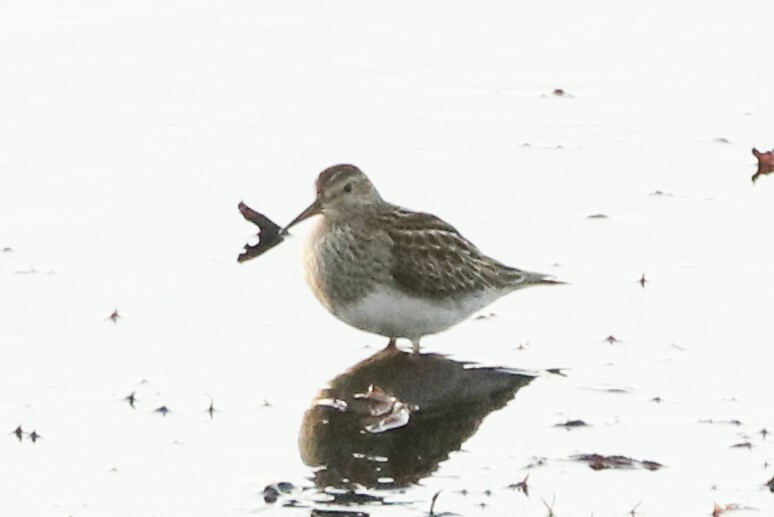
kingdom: Animalia
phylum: Chordata
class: Aves
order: Charadriiformes
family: Scolopacidae
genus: Calidris
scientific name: Calidris melanotos
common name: Pectoral sandpiper
